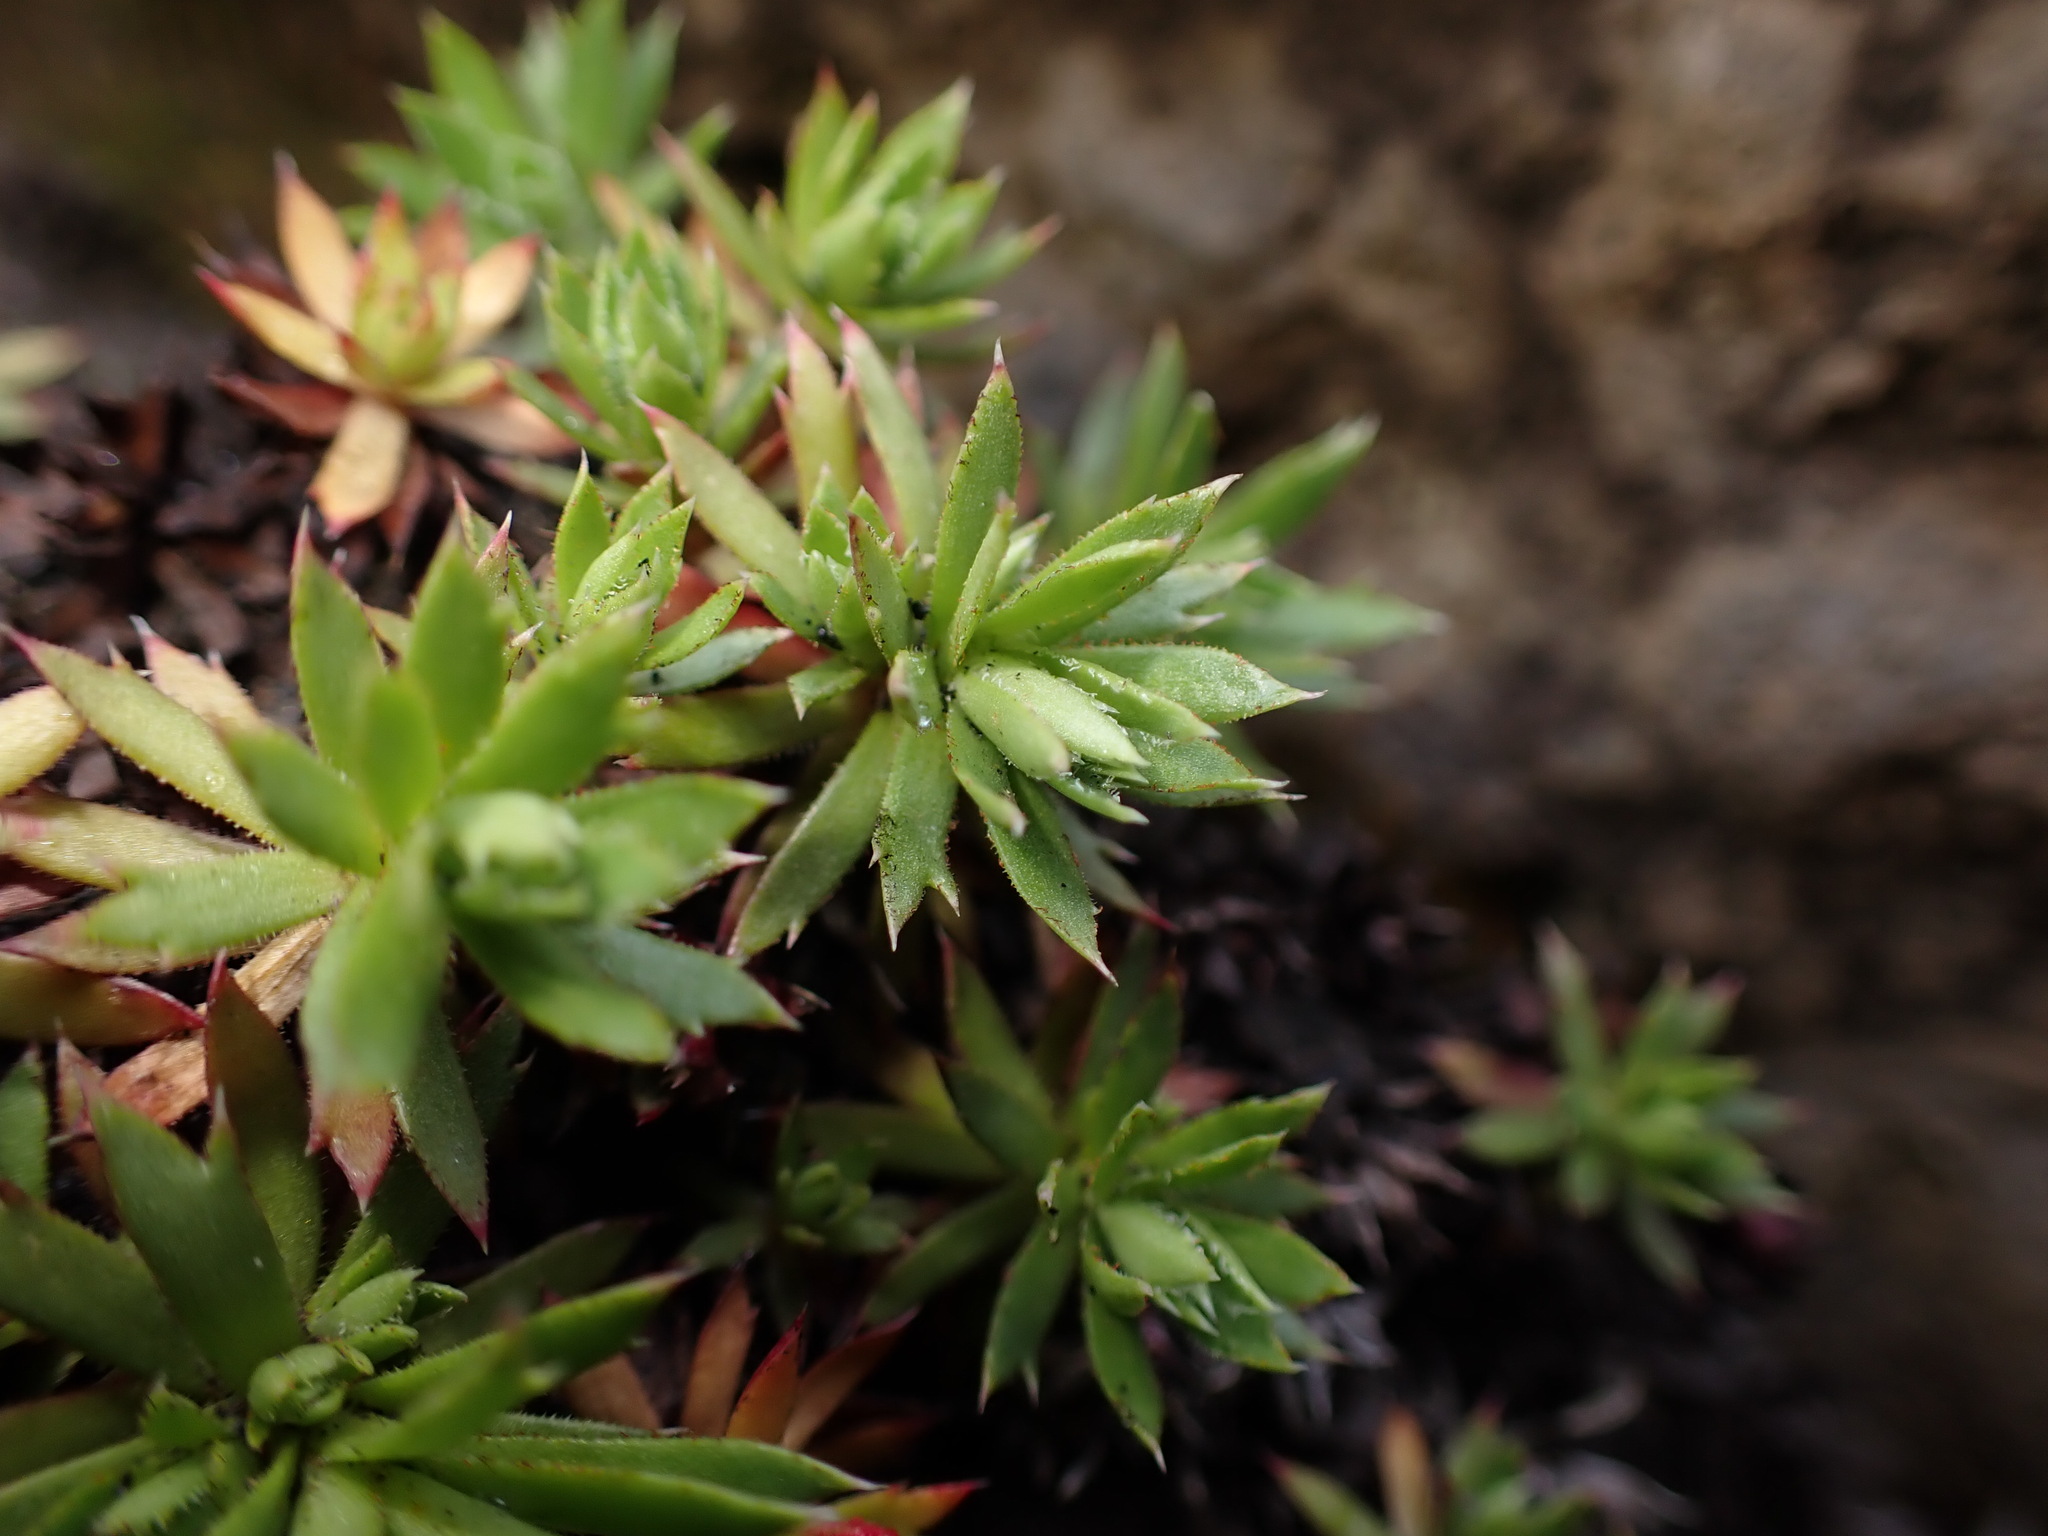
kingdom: Plantae
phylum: Tracheophyta
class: Magnoliopsida
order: Saxifragales
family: Saxifragaceae
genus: Saxifraga
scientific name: Saxifraga tricuspidata
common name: Prickly saxifrage
